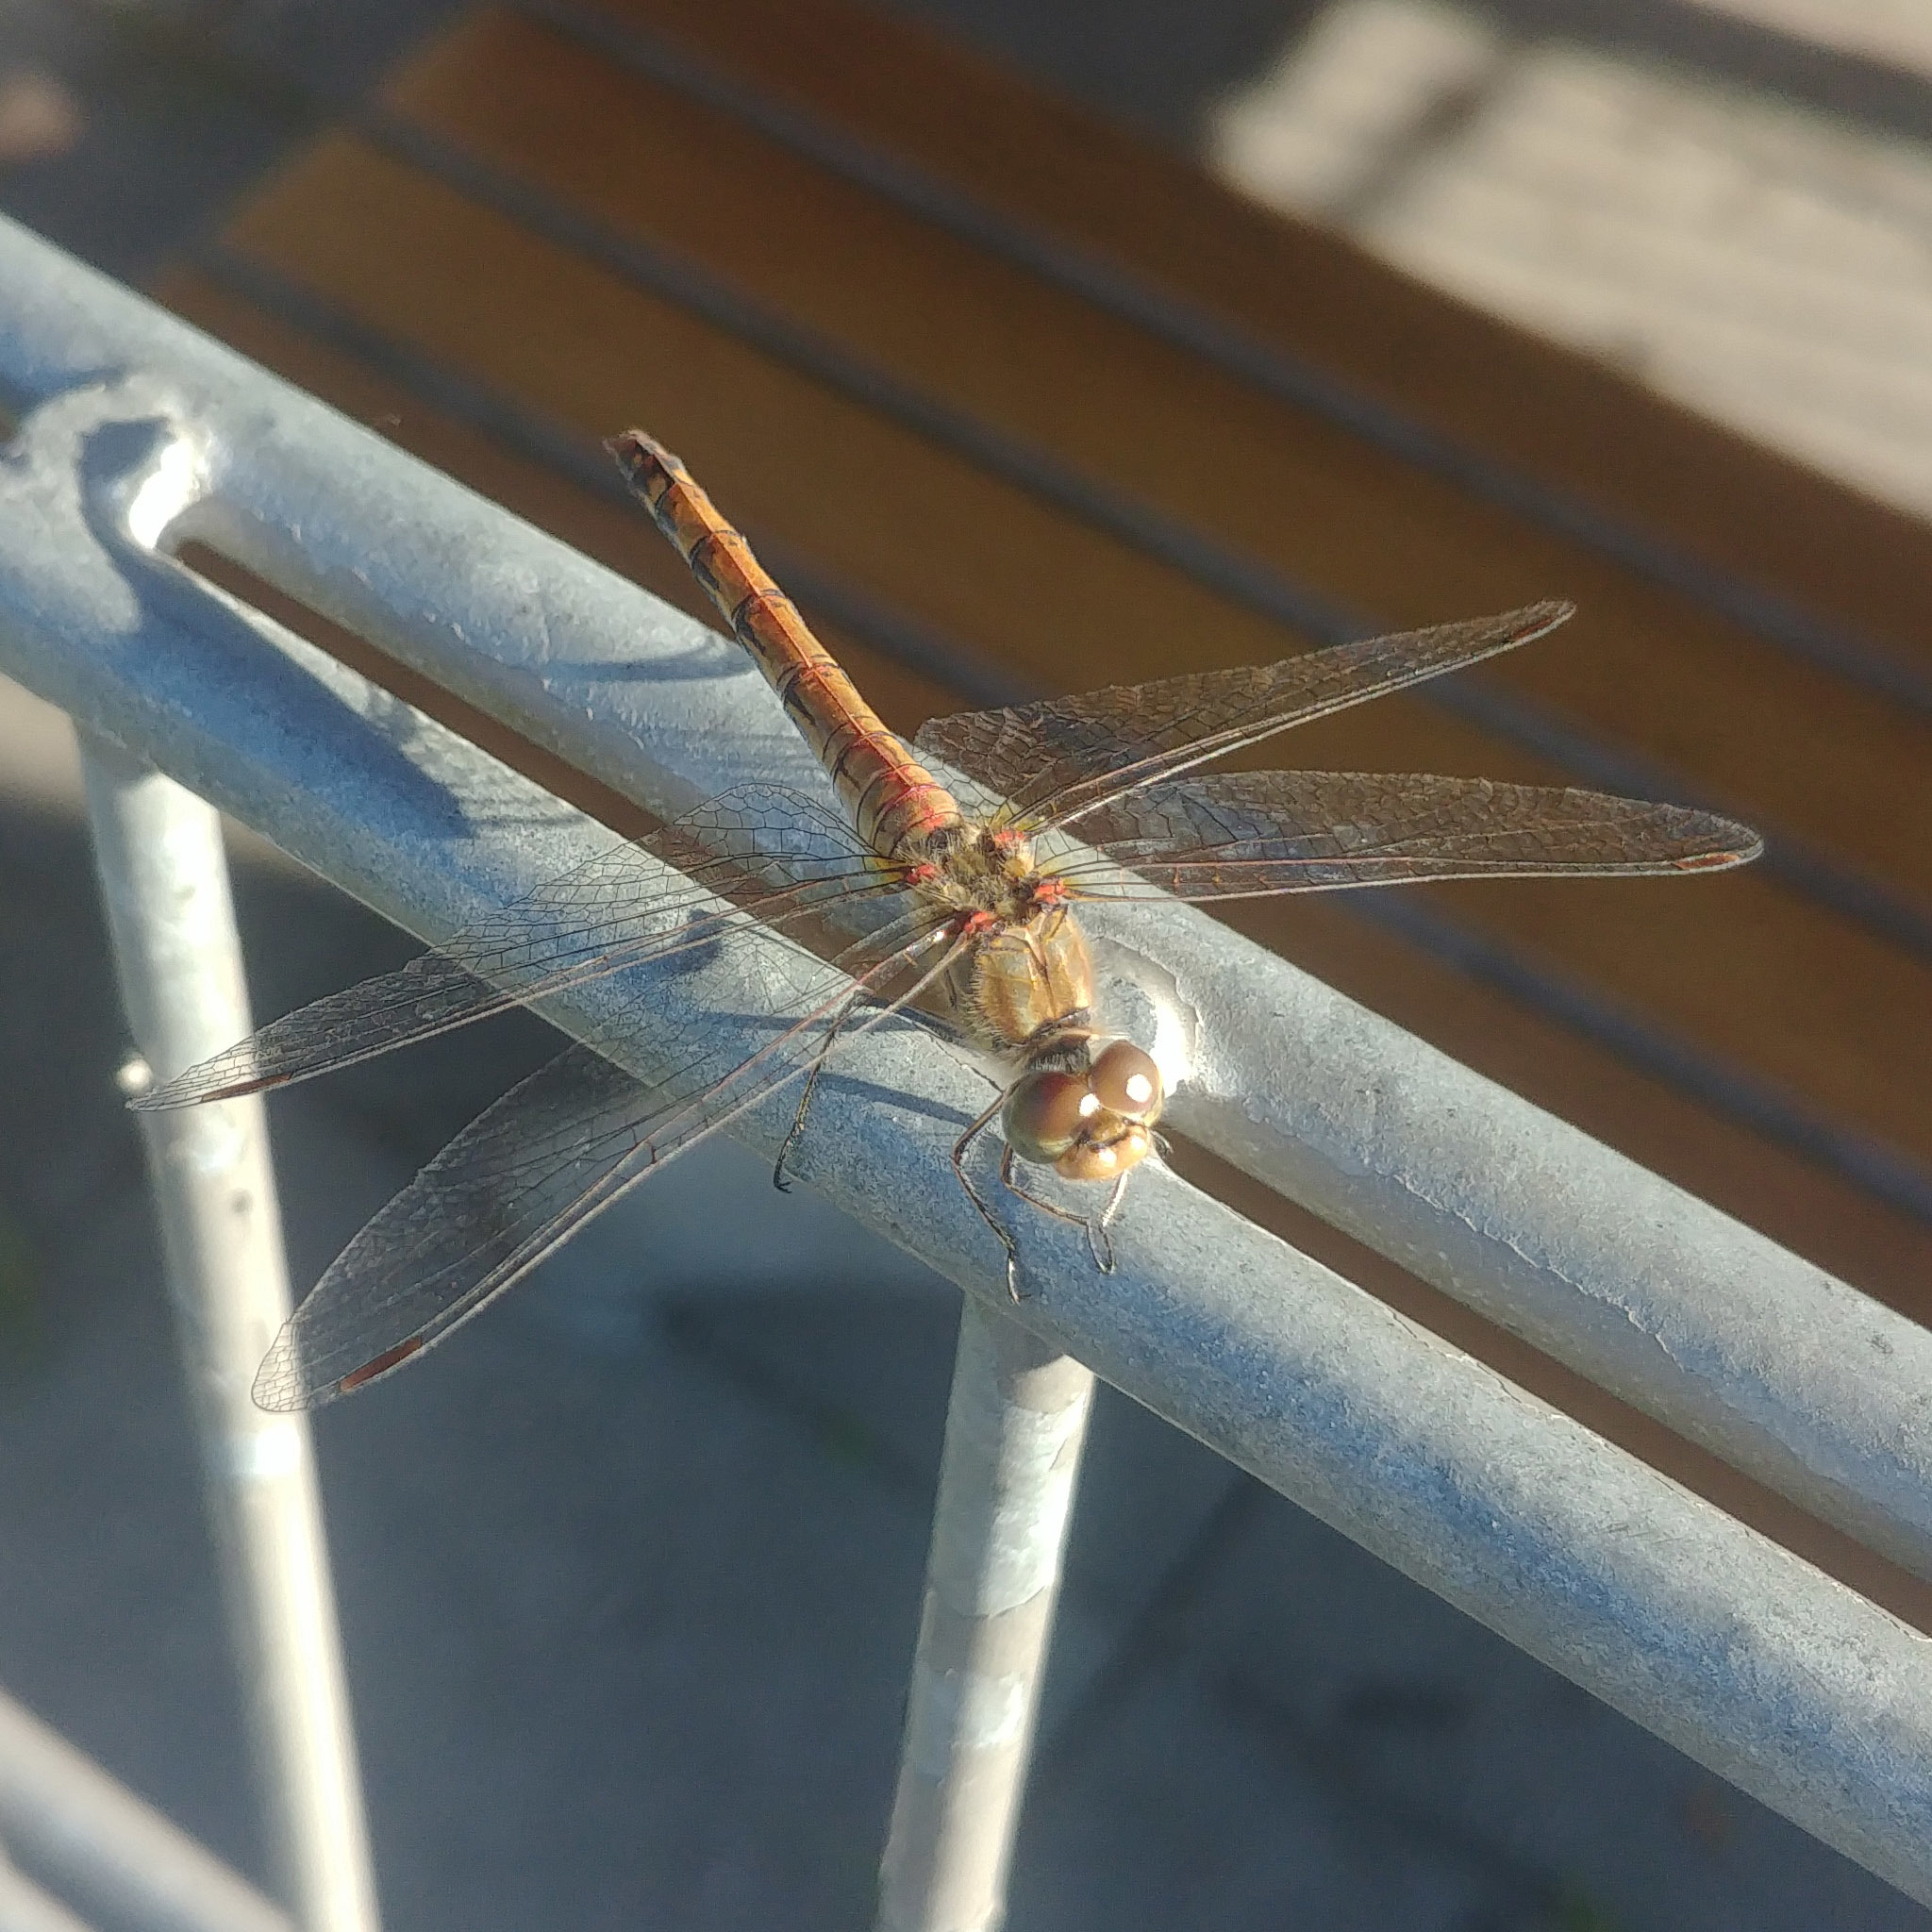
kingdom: Animalia
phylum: Arthropoda
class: Insecta
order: Odonata
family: Libellulidae
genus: Sympetrum
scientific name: Sympetrum striolatum
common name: Common darter
